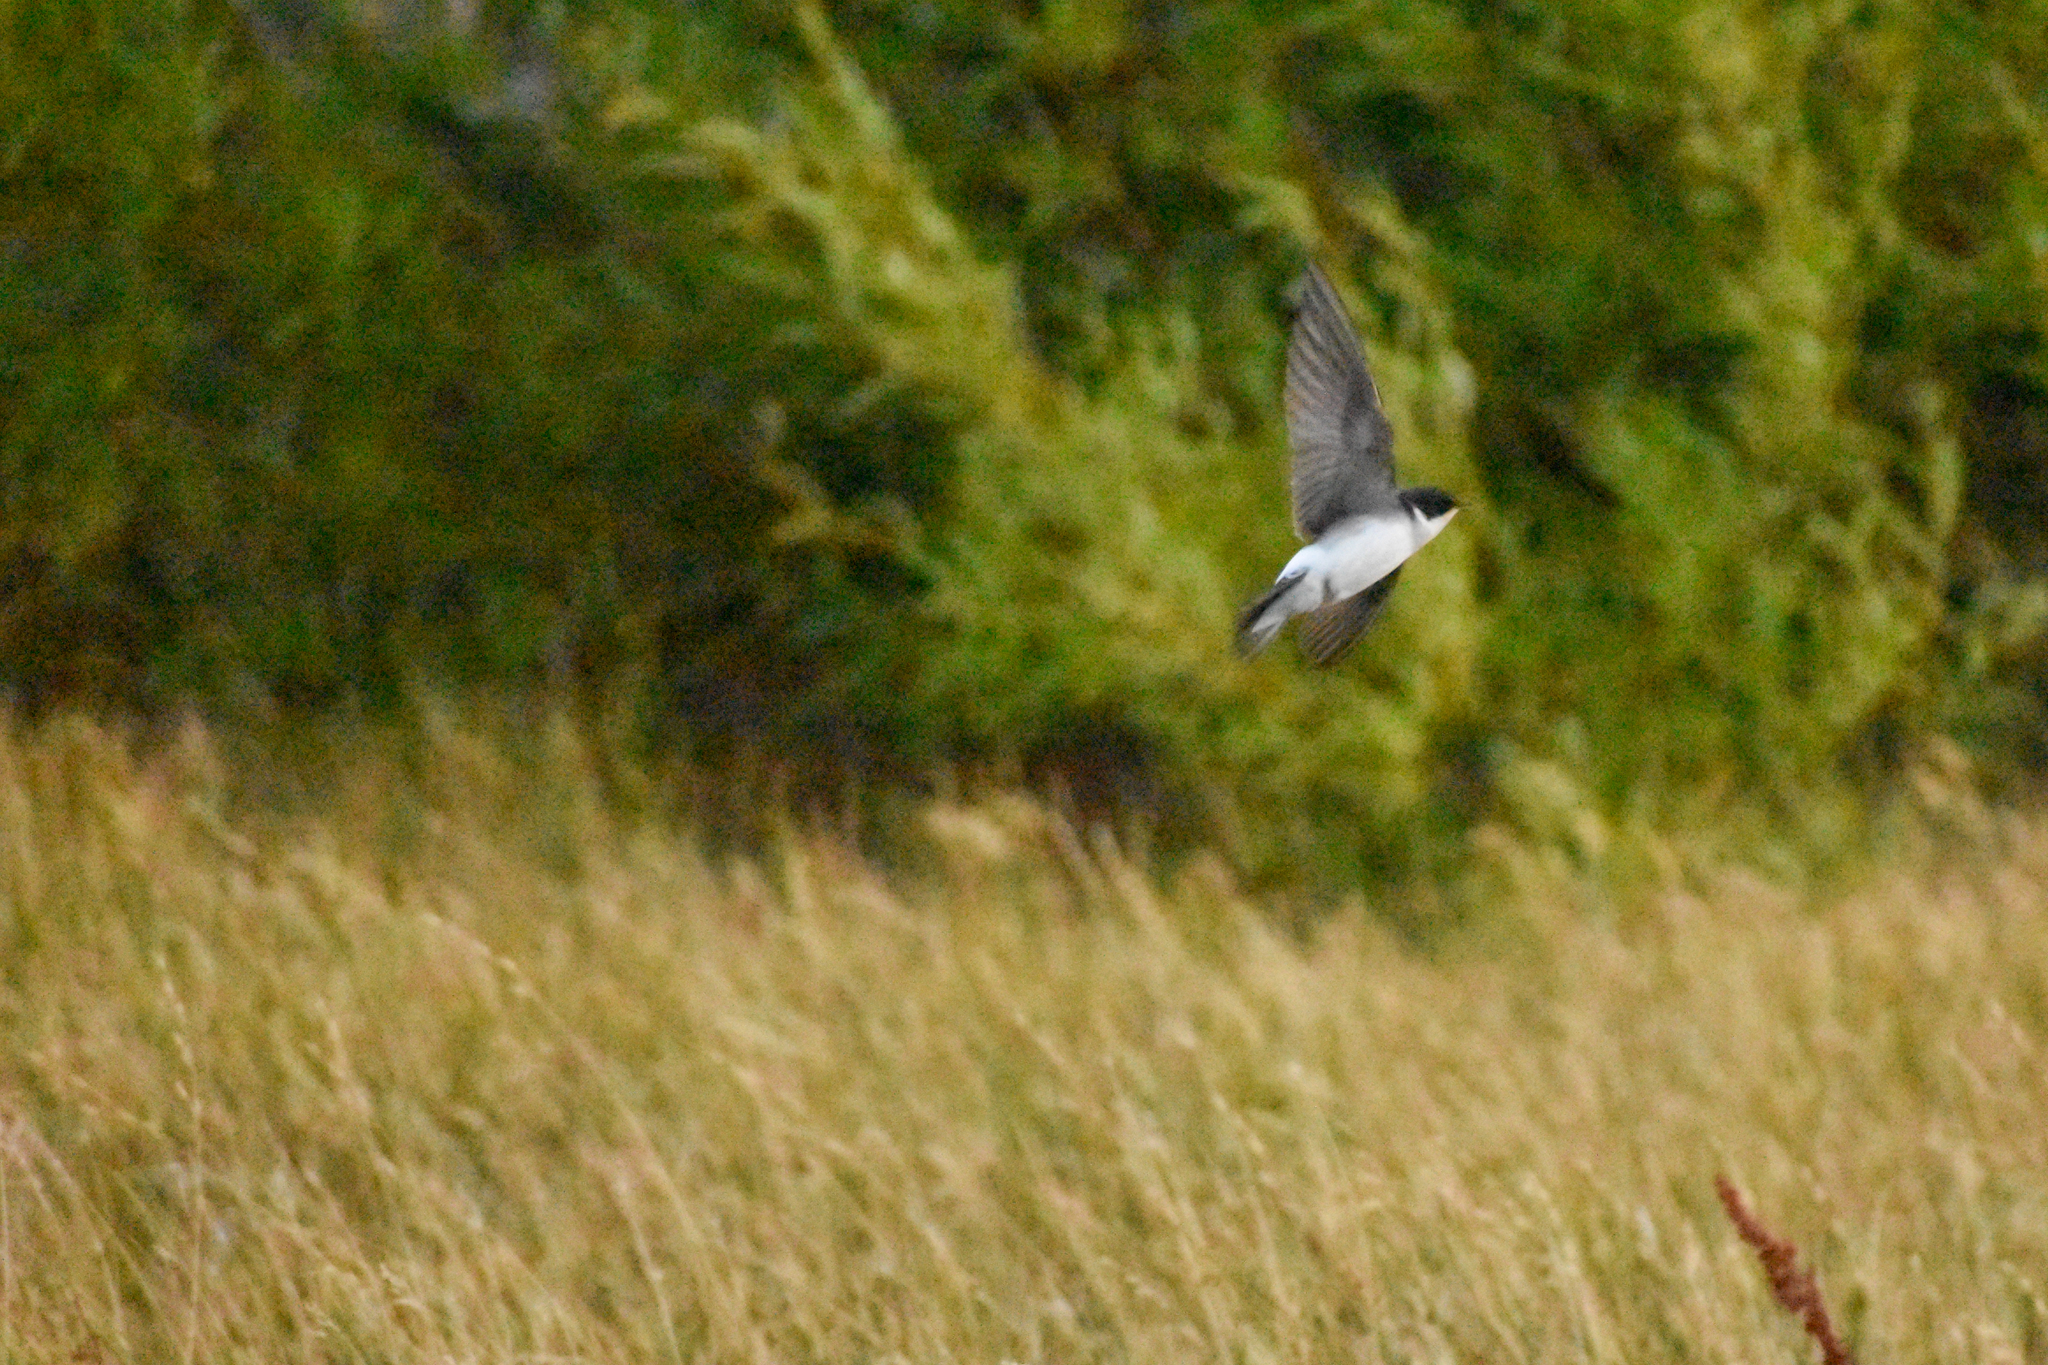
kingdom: Animalia
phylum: Chordata
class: Aves
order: Passeriformes
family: Hirundinidae
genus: Tachycineta
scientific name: Tachycineta leucopyga
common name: Chilean swallow
